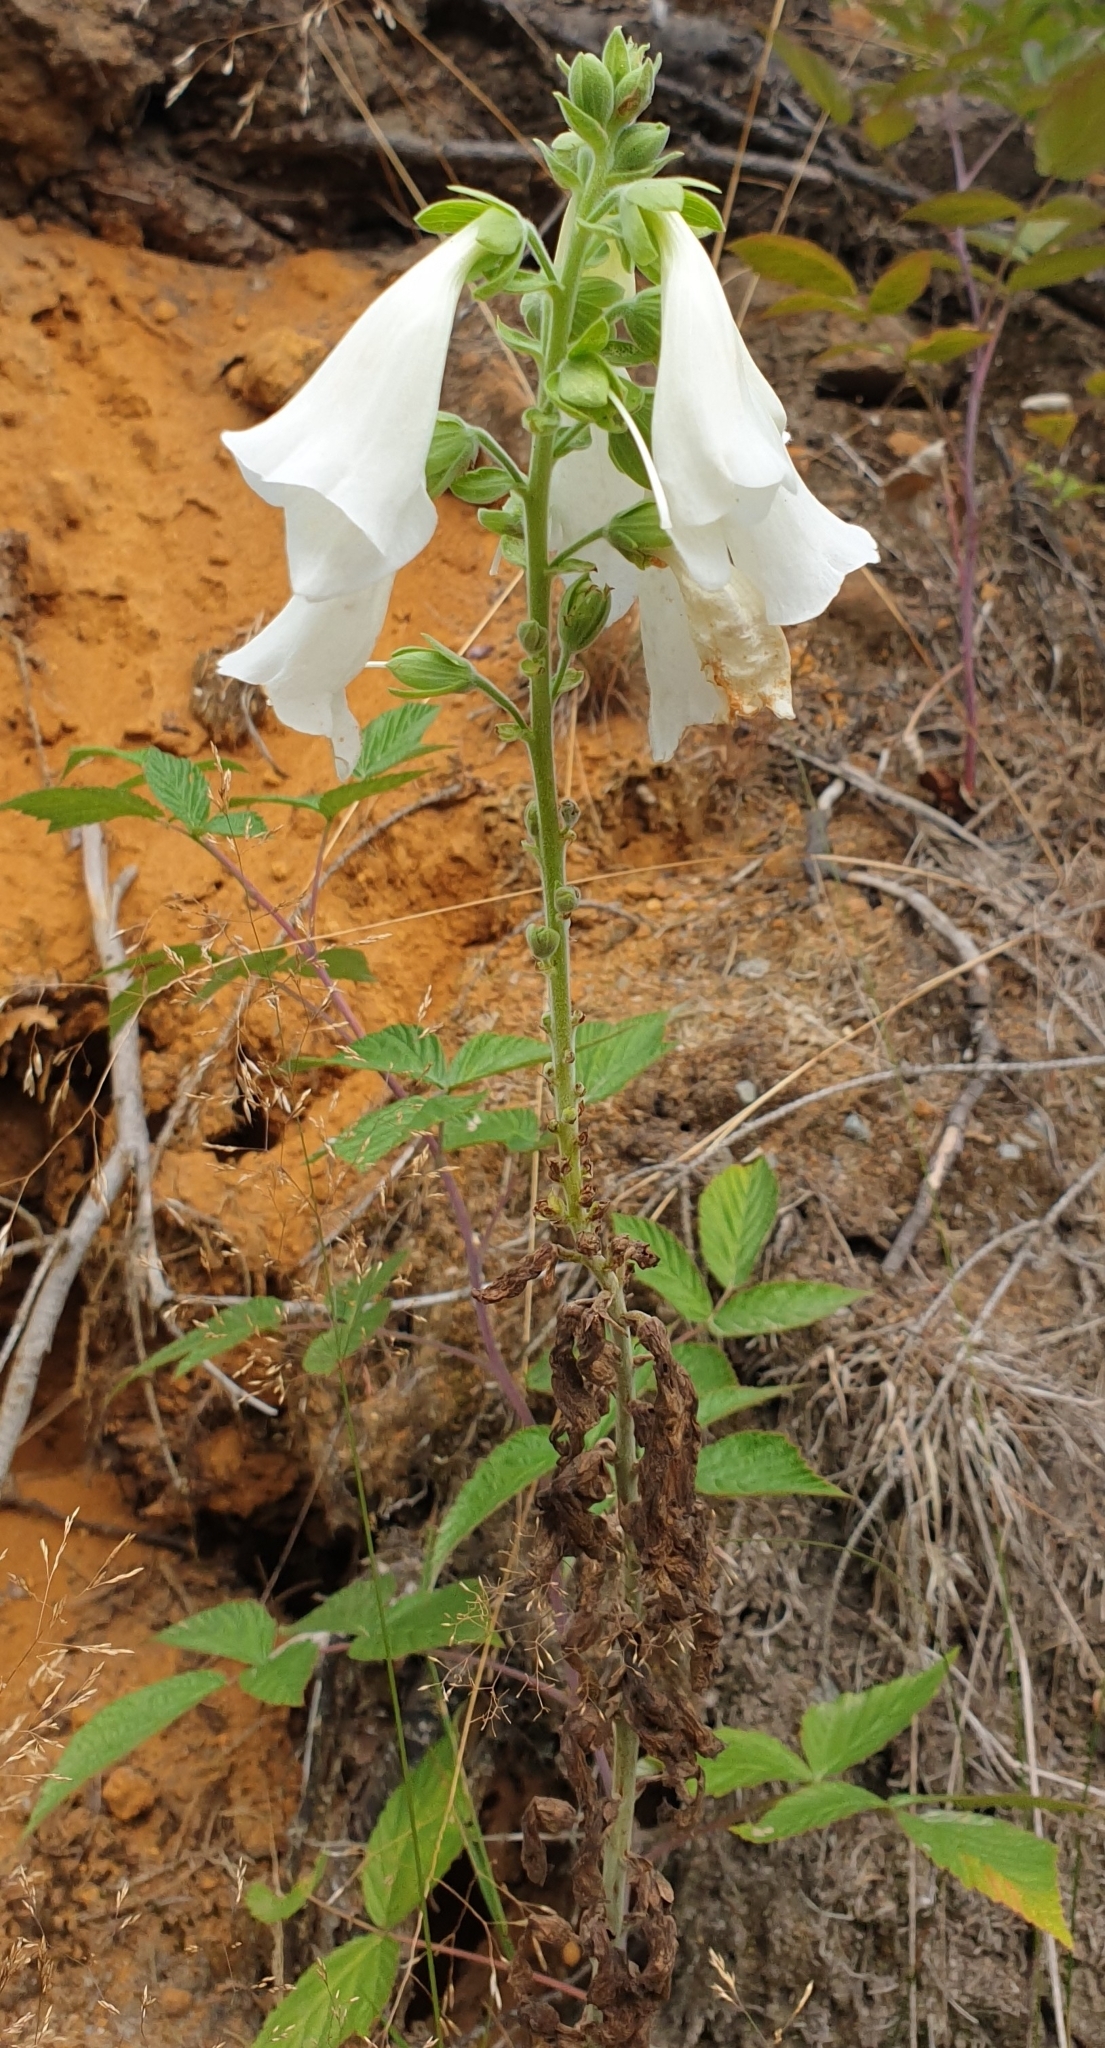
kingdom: Plantae
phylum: Tracheophyta
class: Magnoliopsida
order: Lamiales
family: Plantaginaceae
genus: Digitalis
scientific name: Digitalis purpurea
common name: Foxglove
